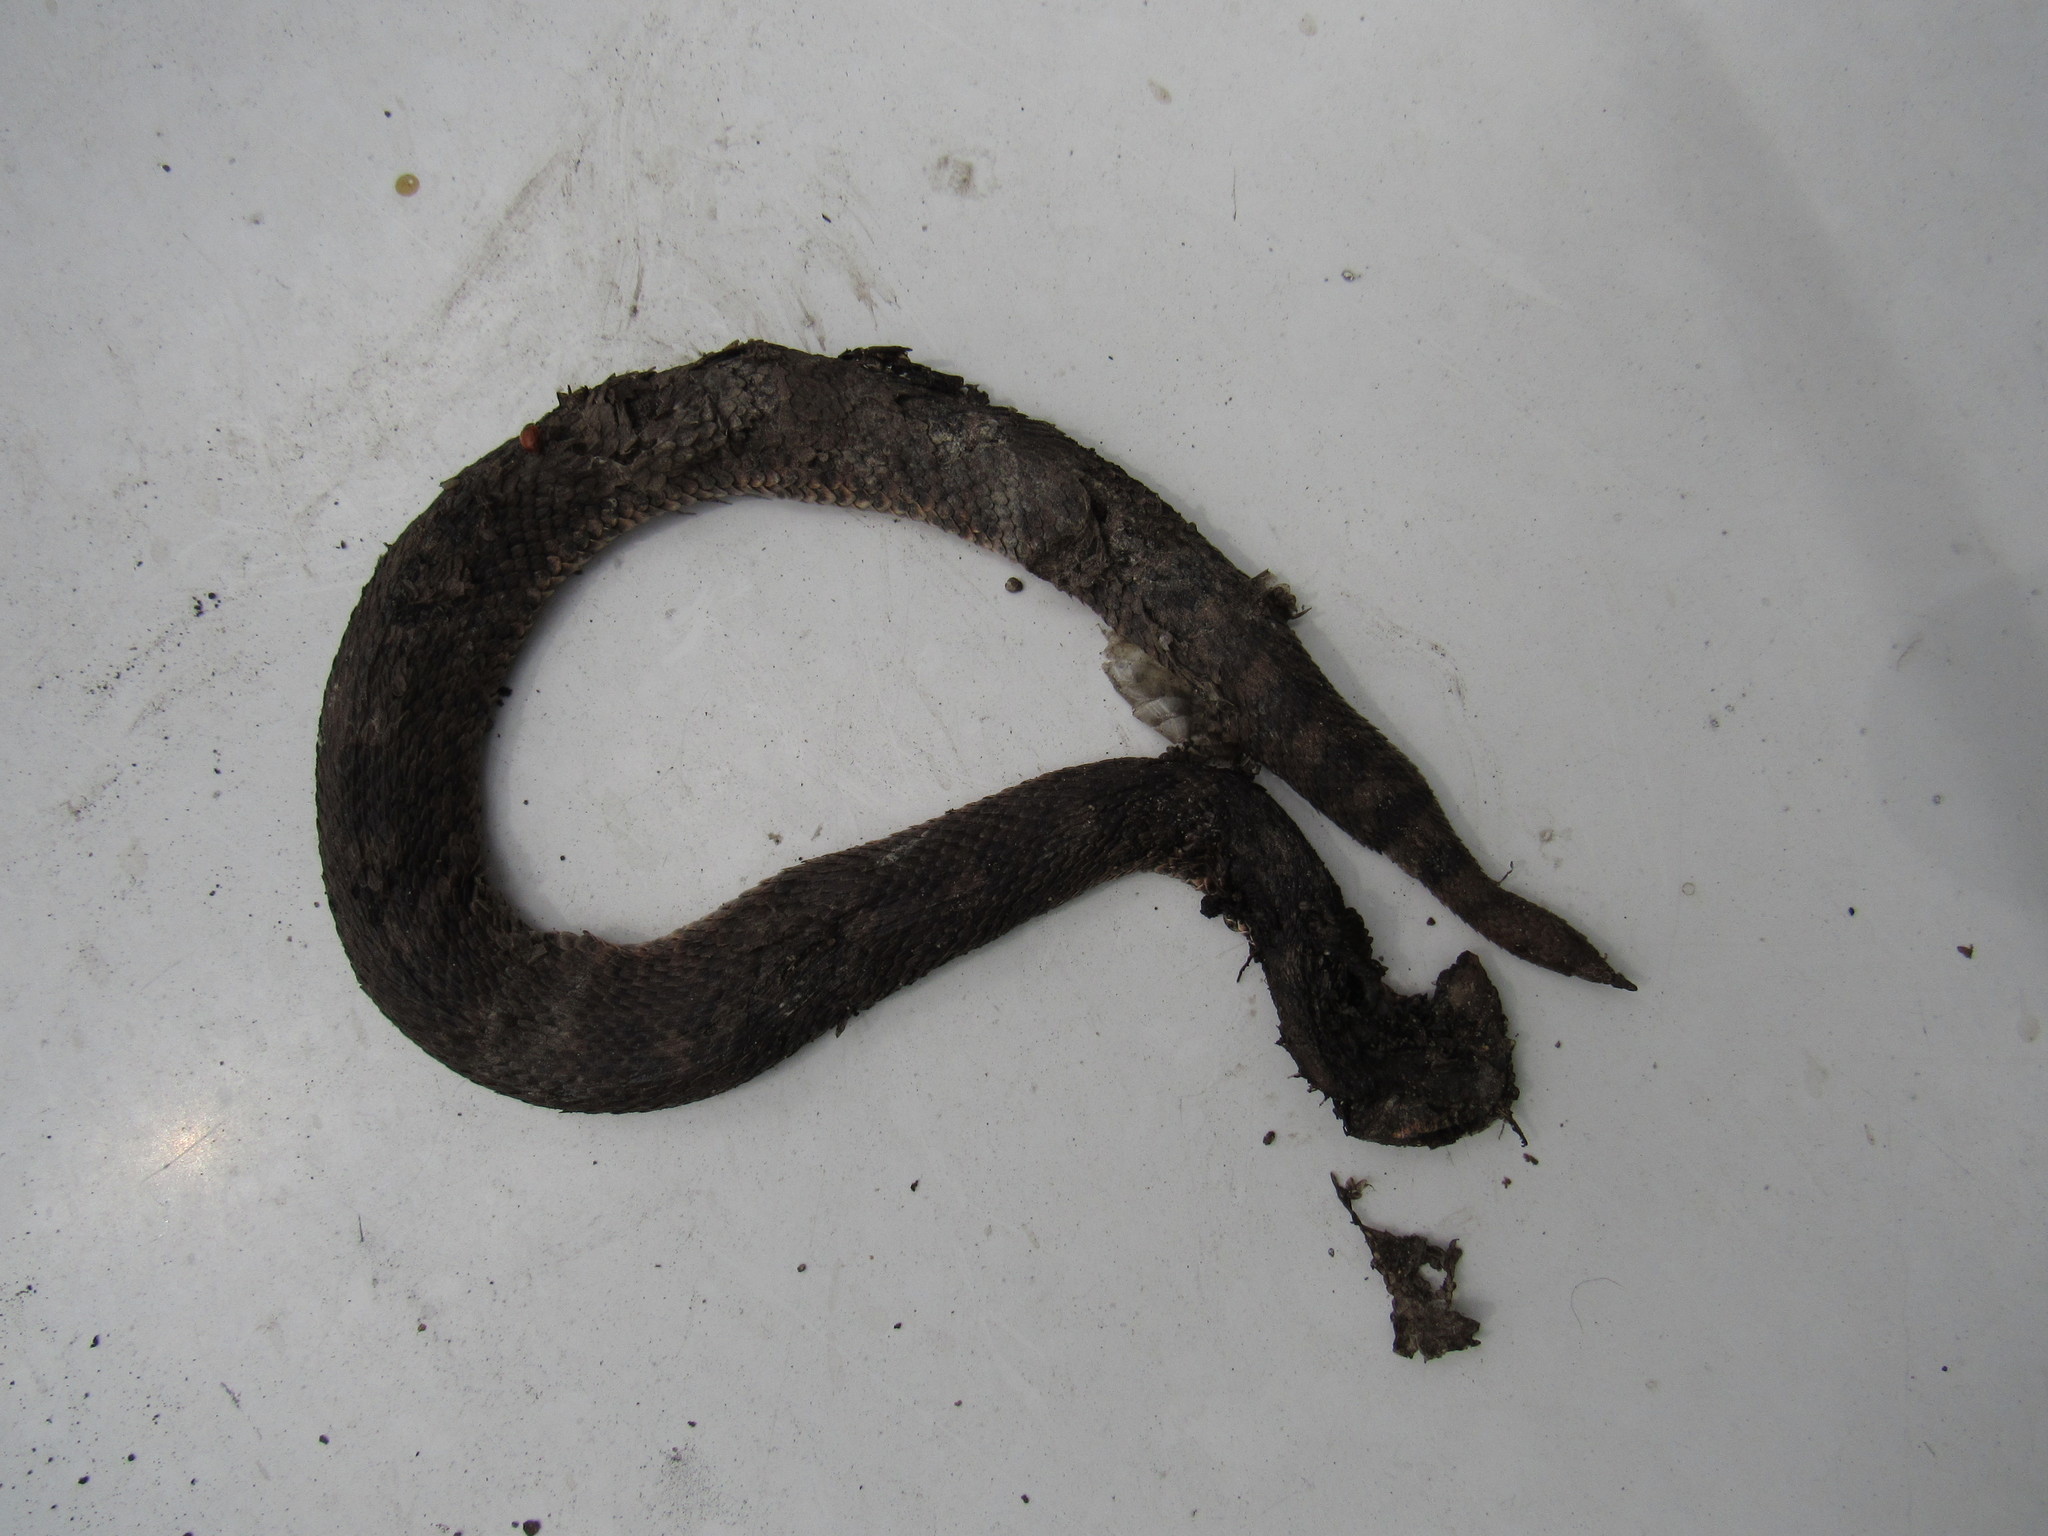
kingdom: Animalia
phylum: Chordata
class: Squamata
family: Viperidae
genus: Crotalus
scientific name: Crotalus aquilus
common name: Queretaran dusky rattlesnake
